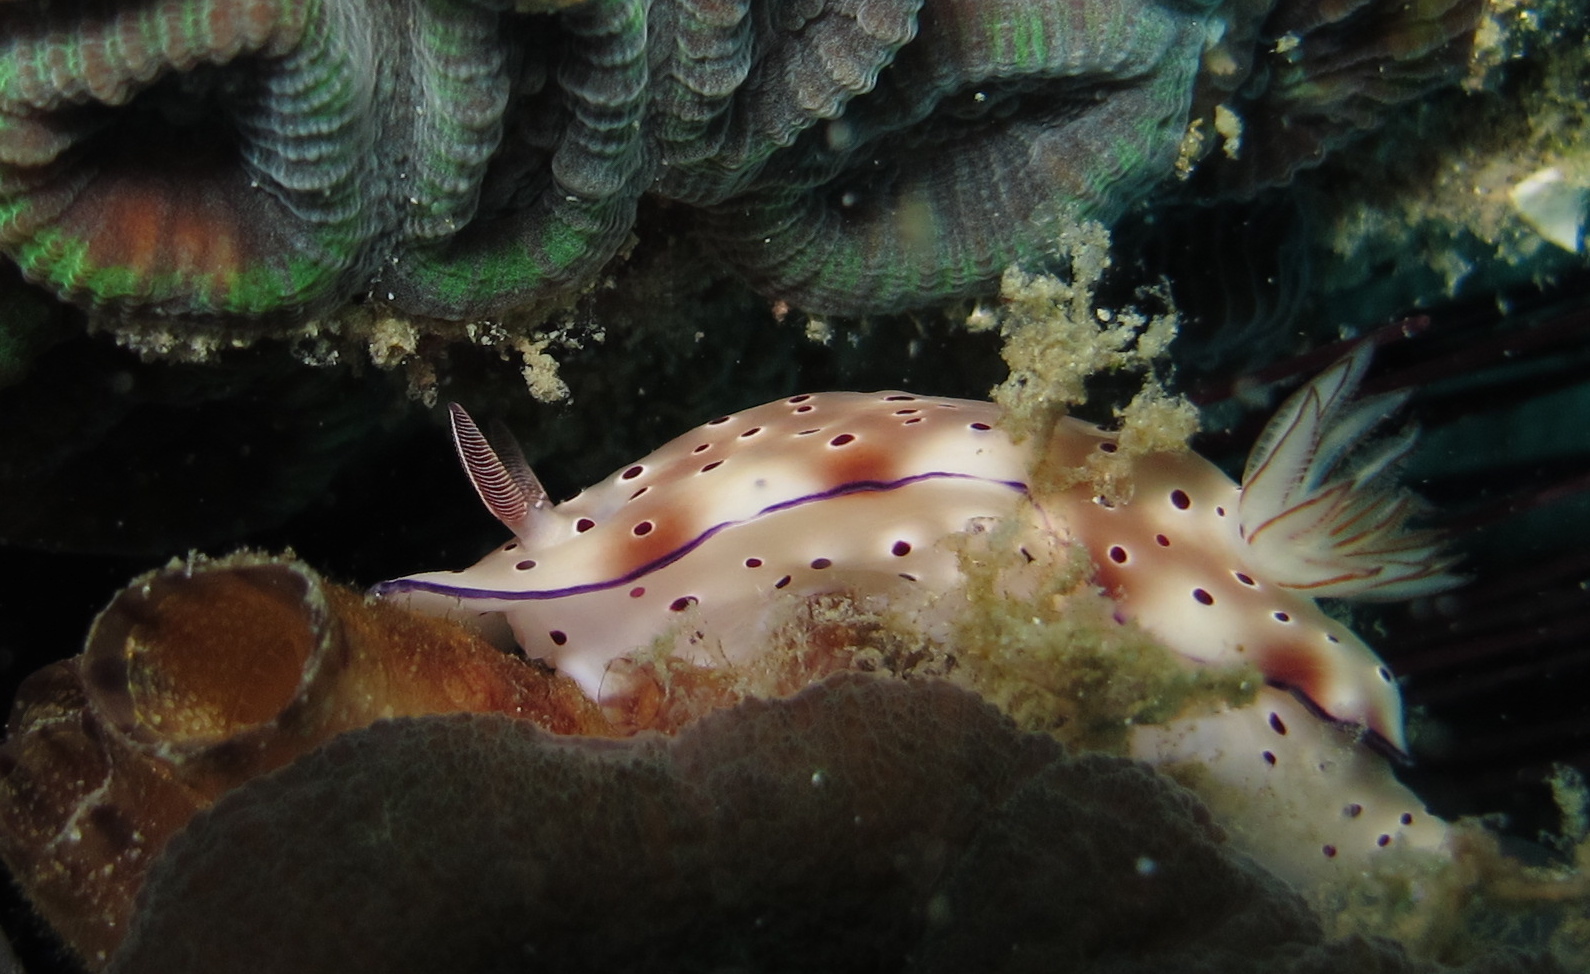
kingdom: Animalia
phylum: Mollusca
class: Gastropoda
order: Nudibranchia
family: Chromodorididae
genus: Hypselodoris
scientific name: Hypselodoris tryoni
